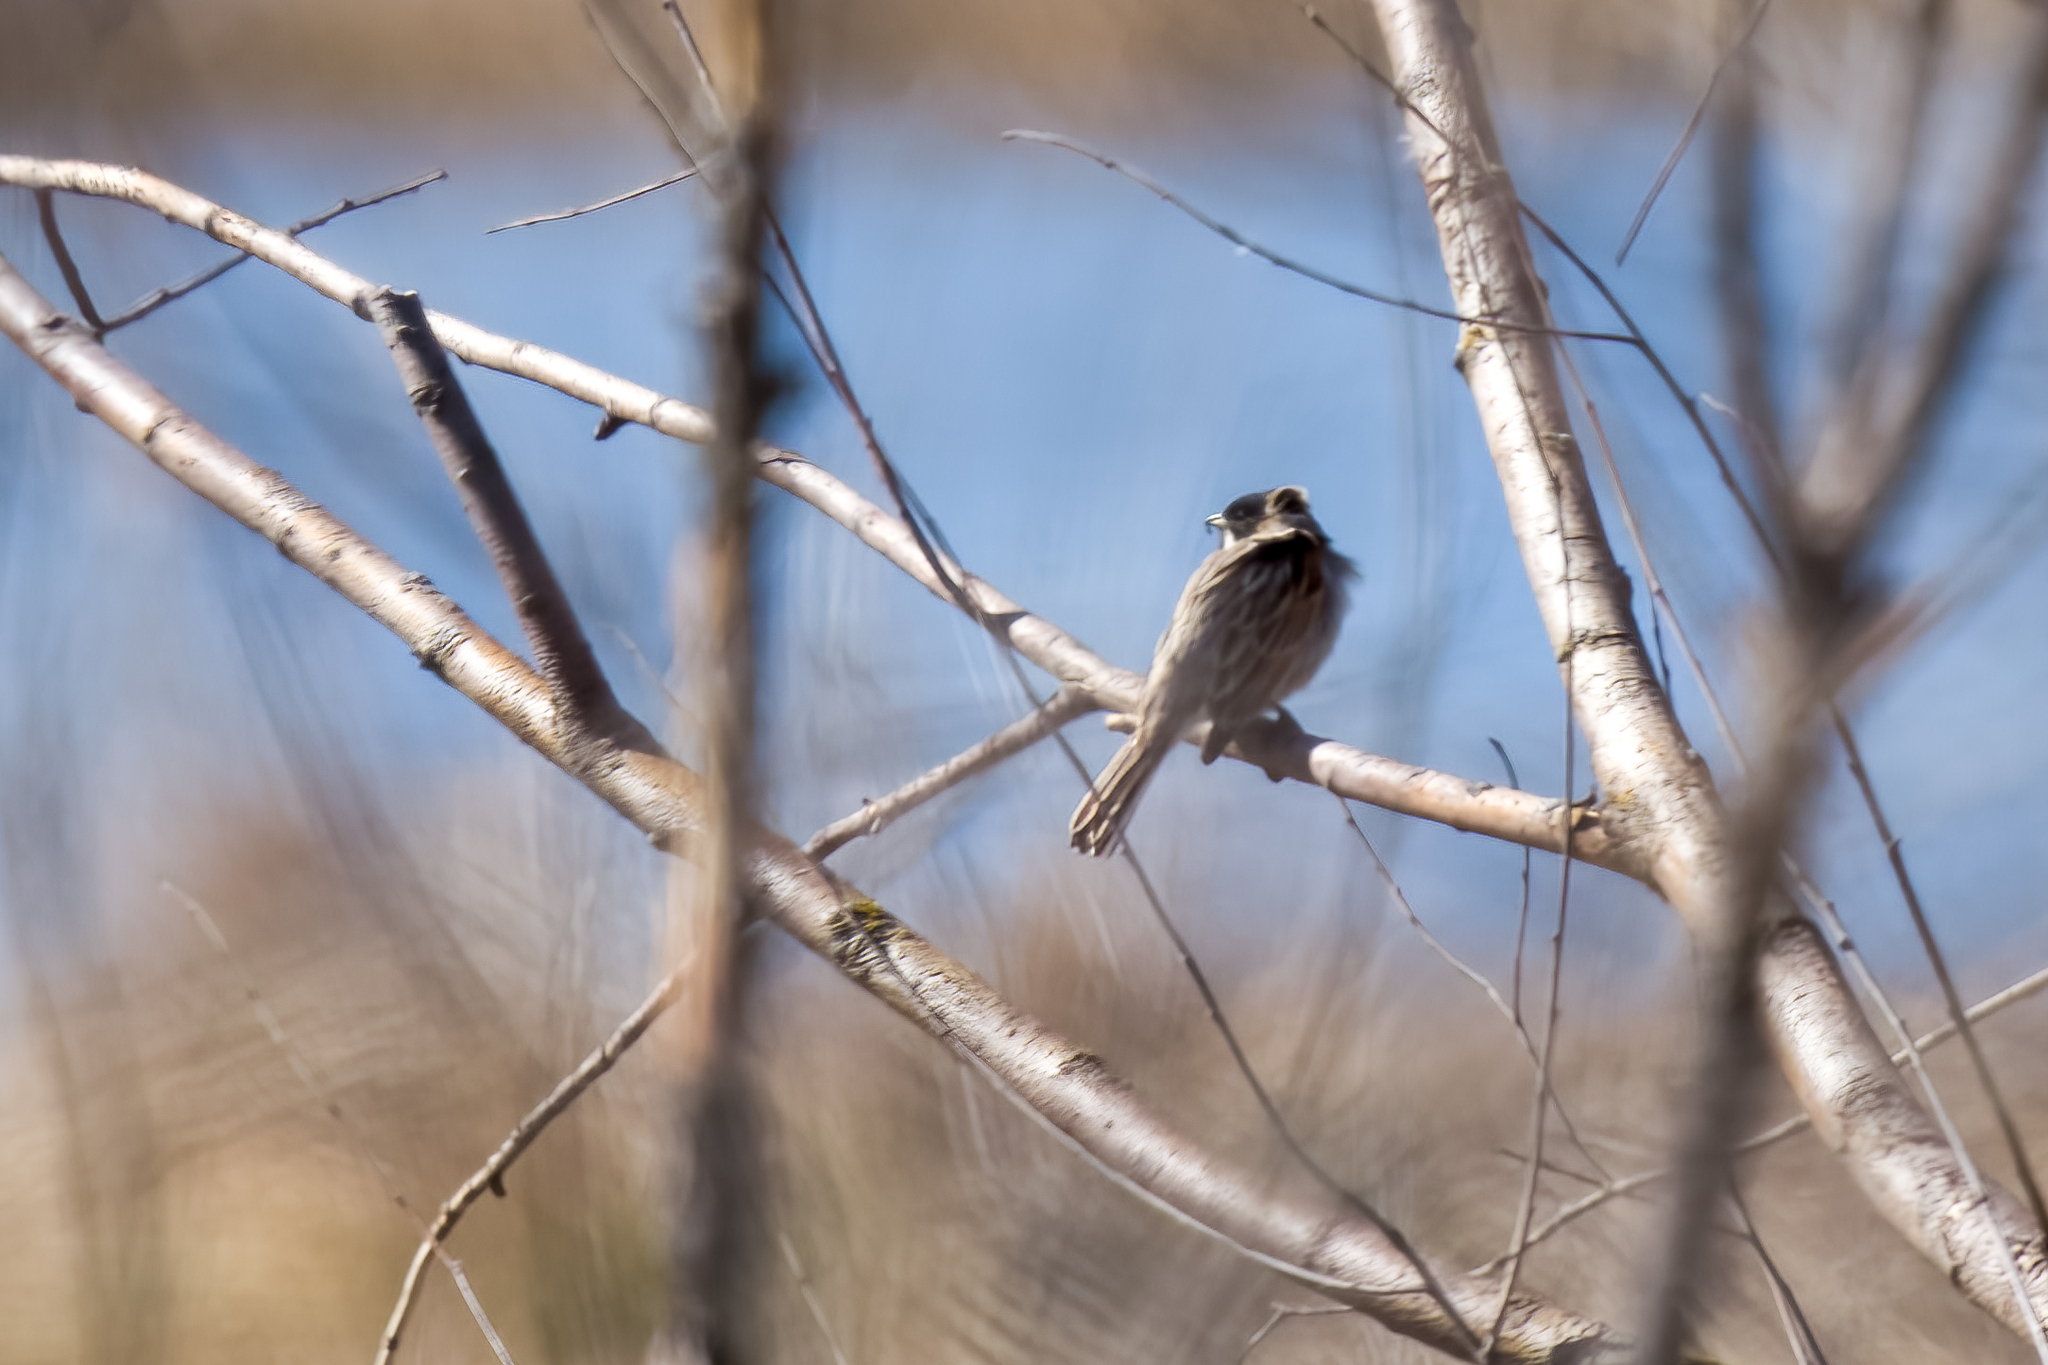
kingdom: Animalia
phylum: Chordata
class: Aves
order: Passeriformes
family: Emberizidae
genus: Emberiza
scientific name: Emberiza schoeniclus
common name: Reed bunting
